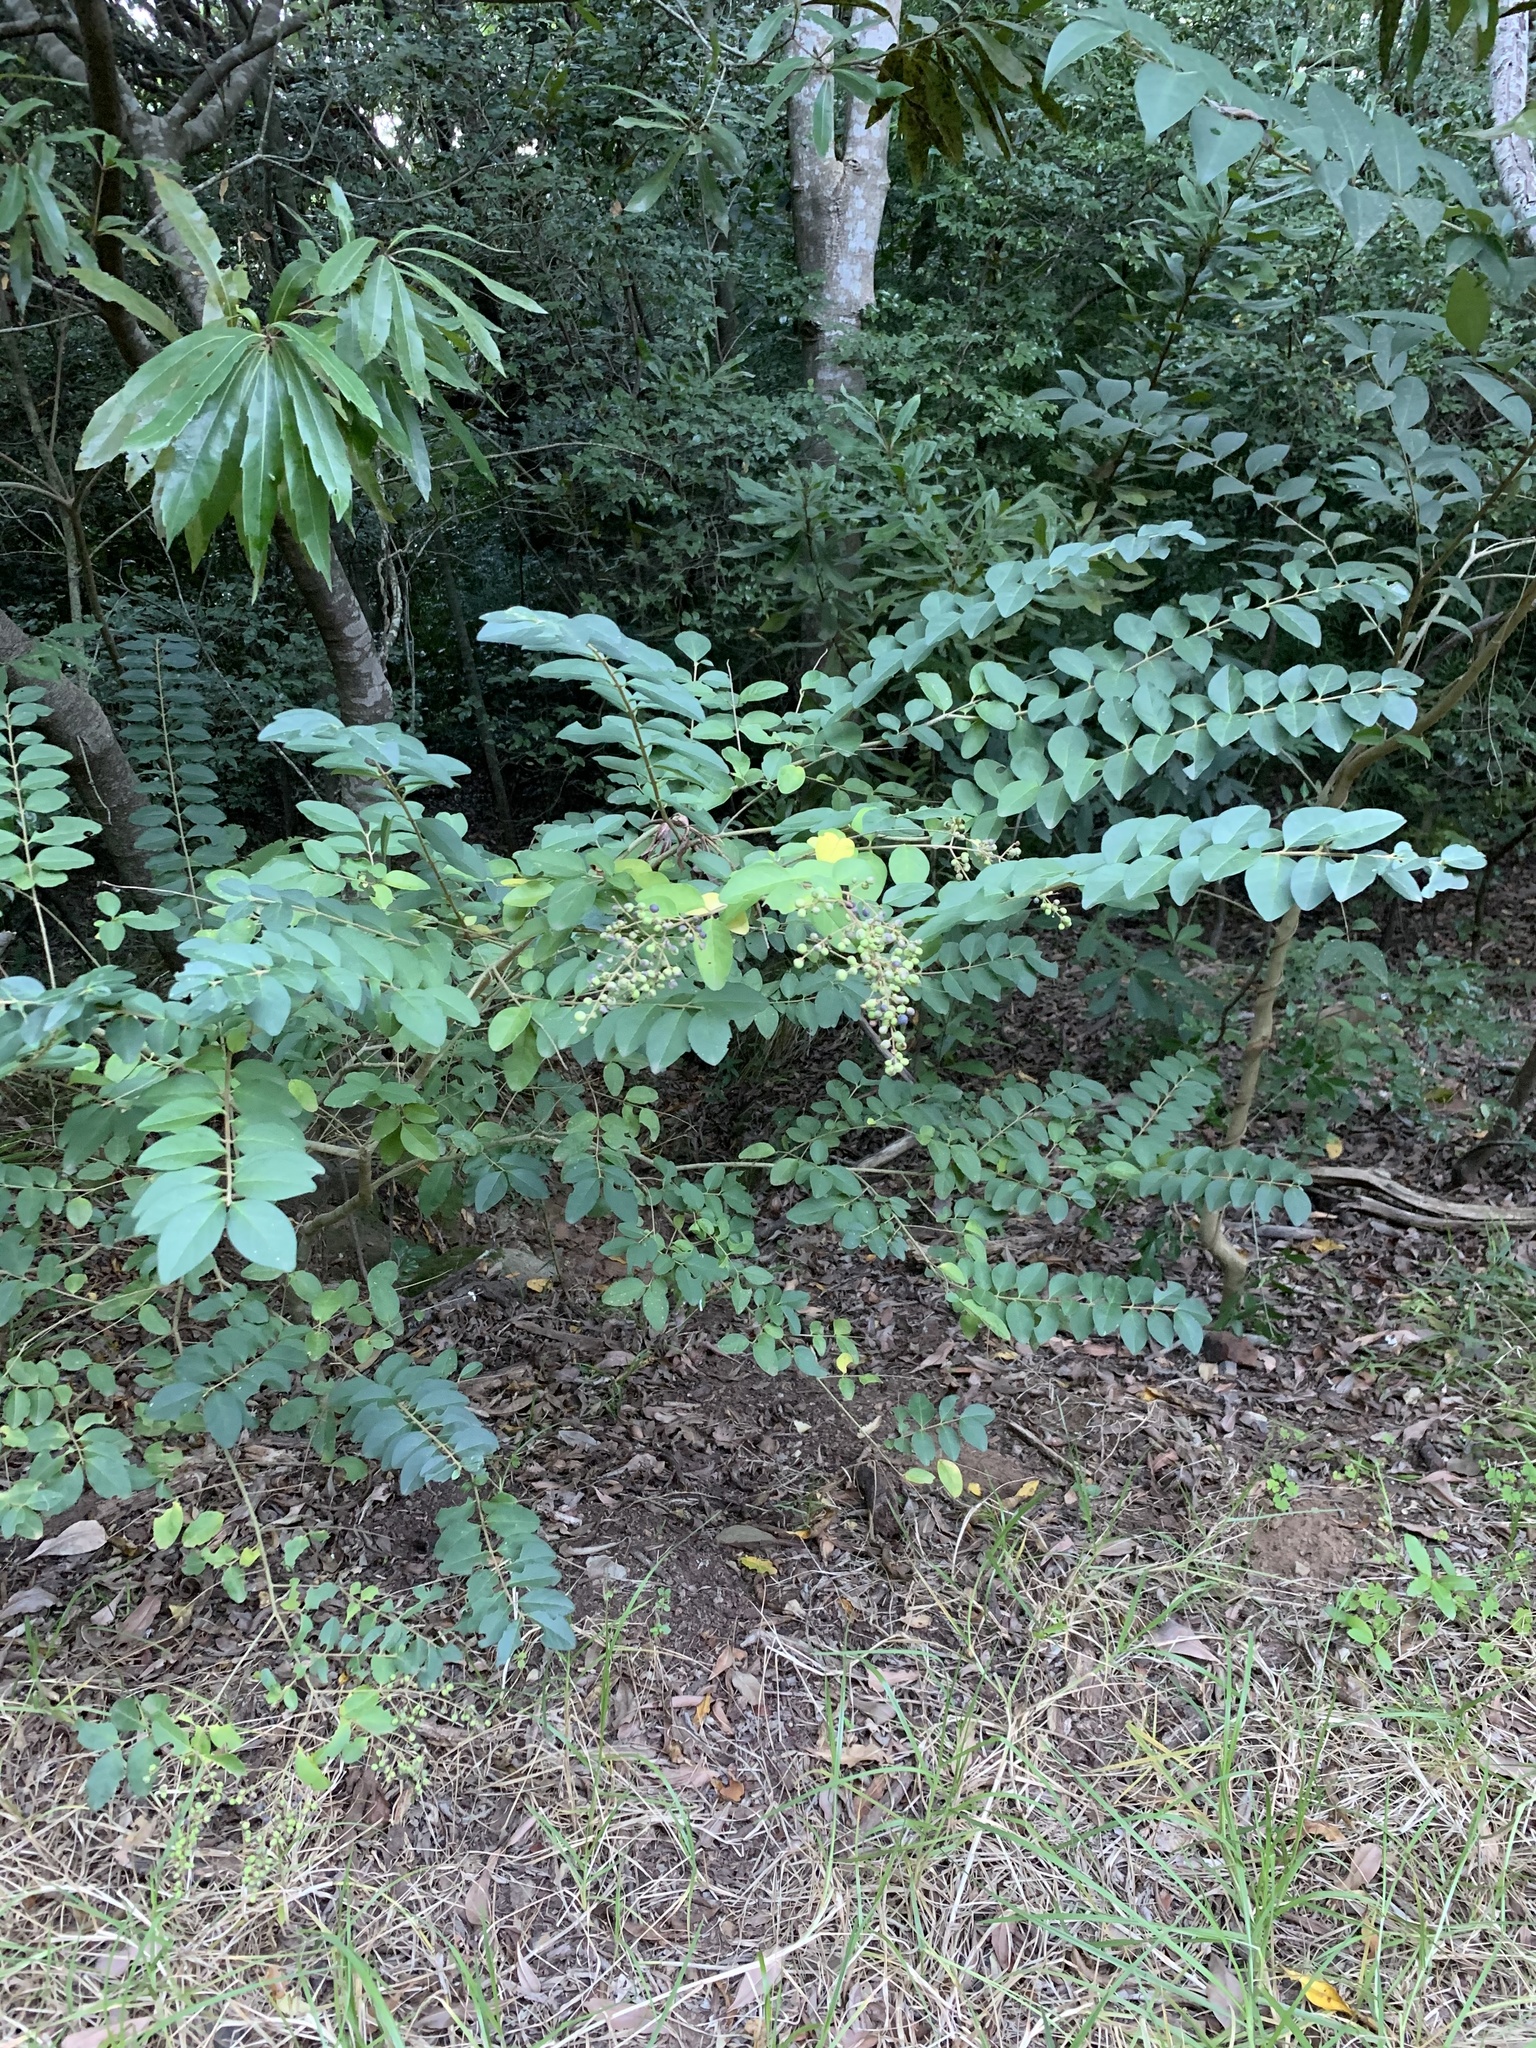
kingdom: Plantae
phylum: Tracheophyta
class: Magnoliopsida
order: Lamiales
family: Oleaceae
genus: Ligustrum
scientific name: Ligustrum sinense
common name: Chinese privet
